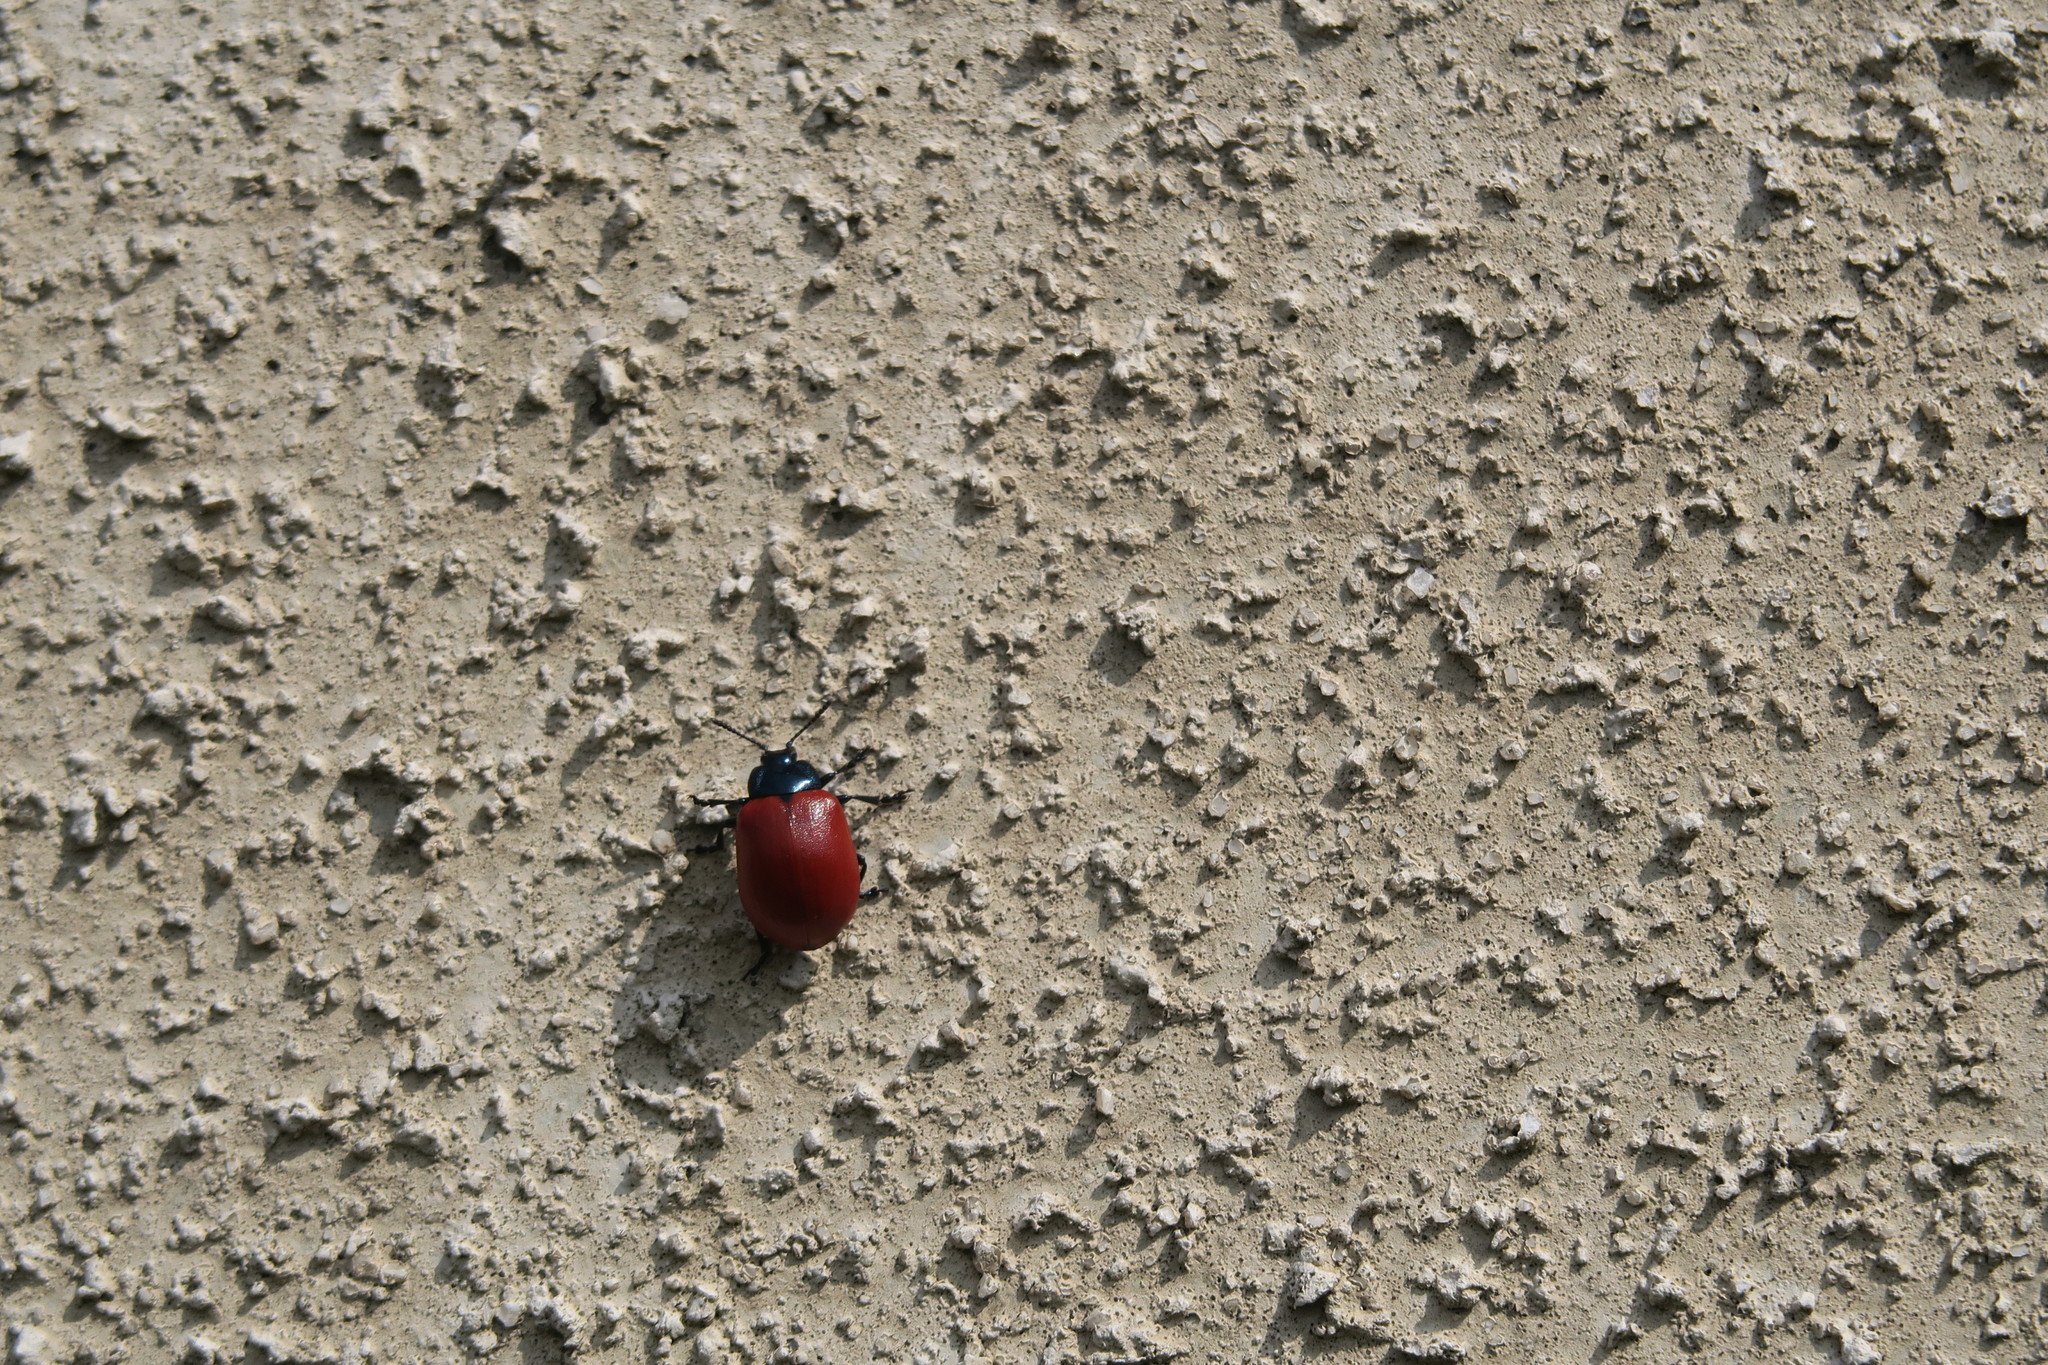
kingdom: Animalia
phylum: Arthropoda
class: Insecta
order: Coleoptera
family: Chrysomelidae
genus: Chrysomela
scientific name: Chrysomela populi
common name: Red poplar leaf beetle
